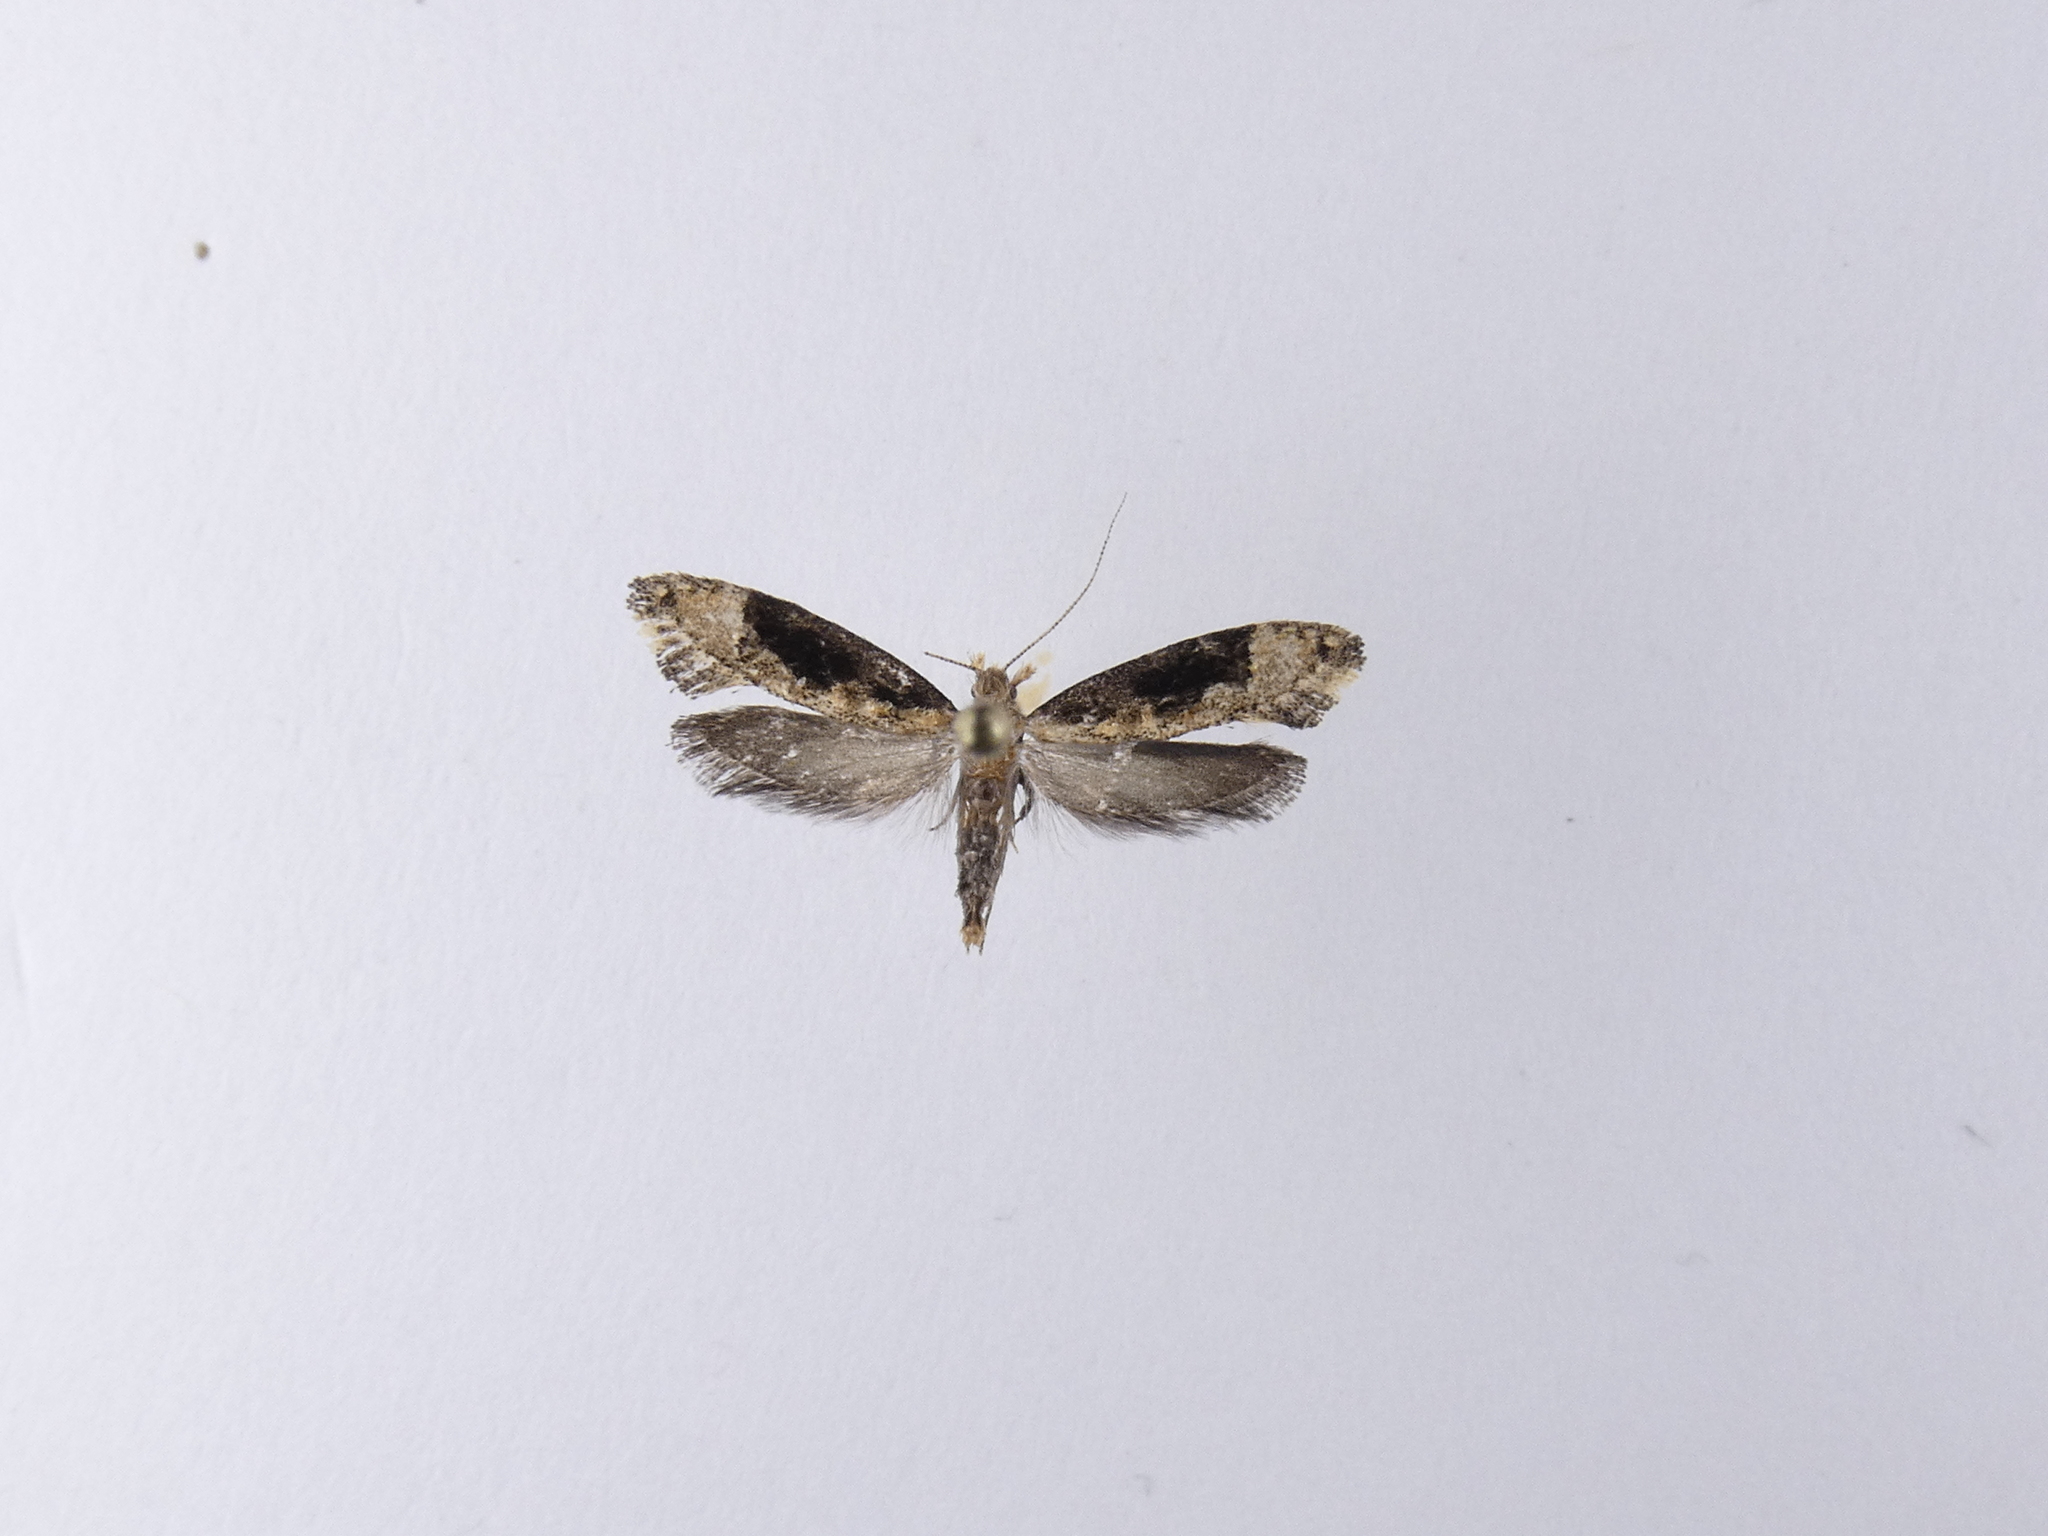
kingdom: Animalia
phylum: Arthropoda
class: Insecta
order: Lepidoptera
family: Tineidae
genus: Trithamnora
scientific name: Trithamnora certella
